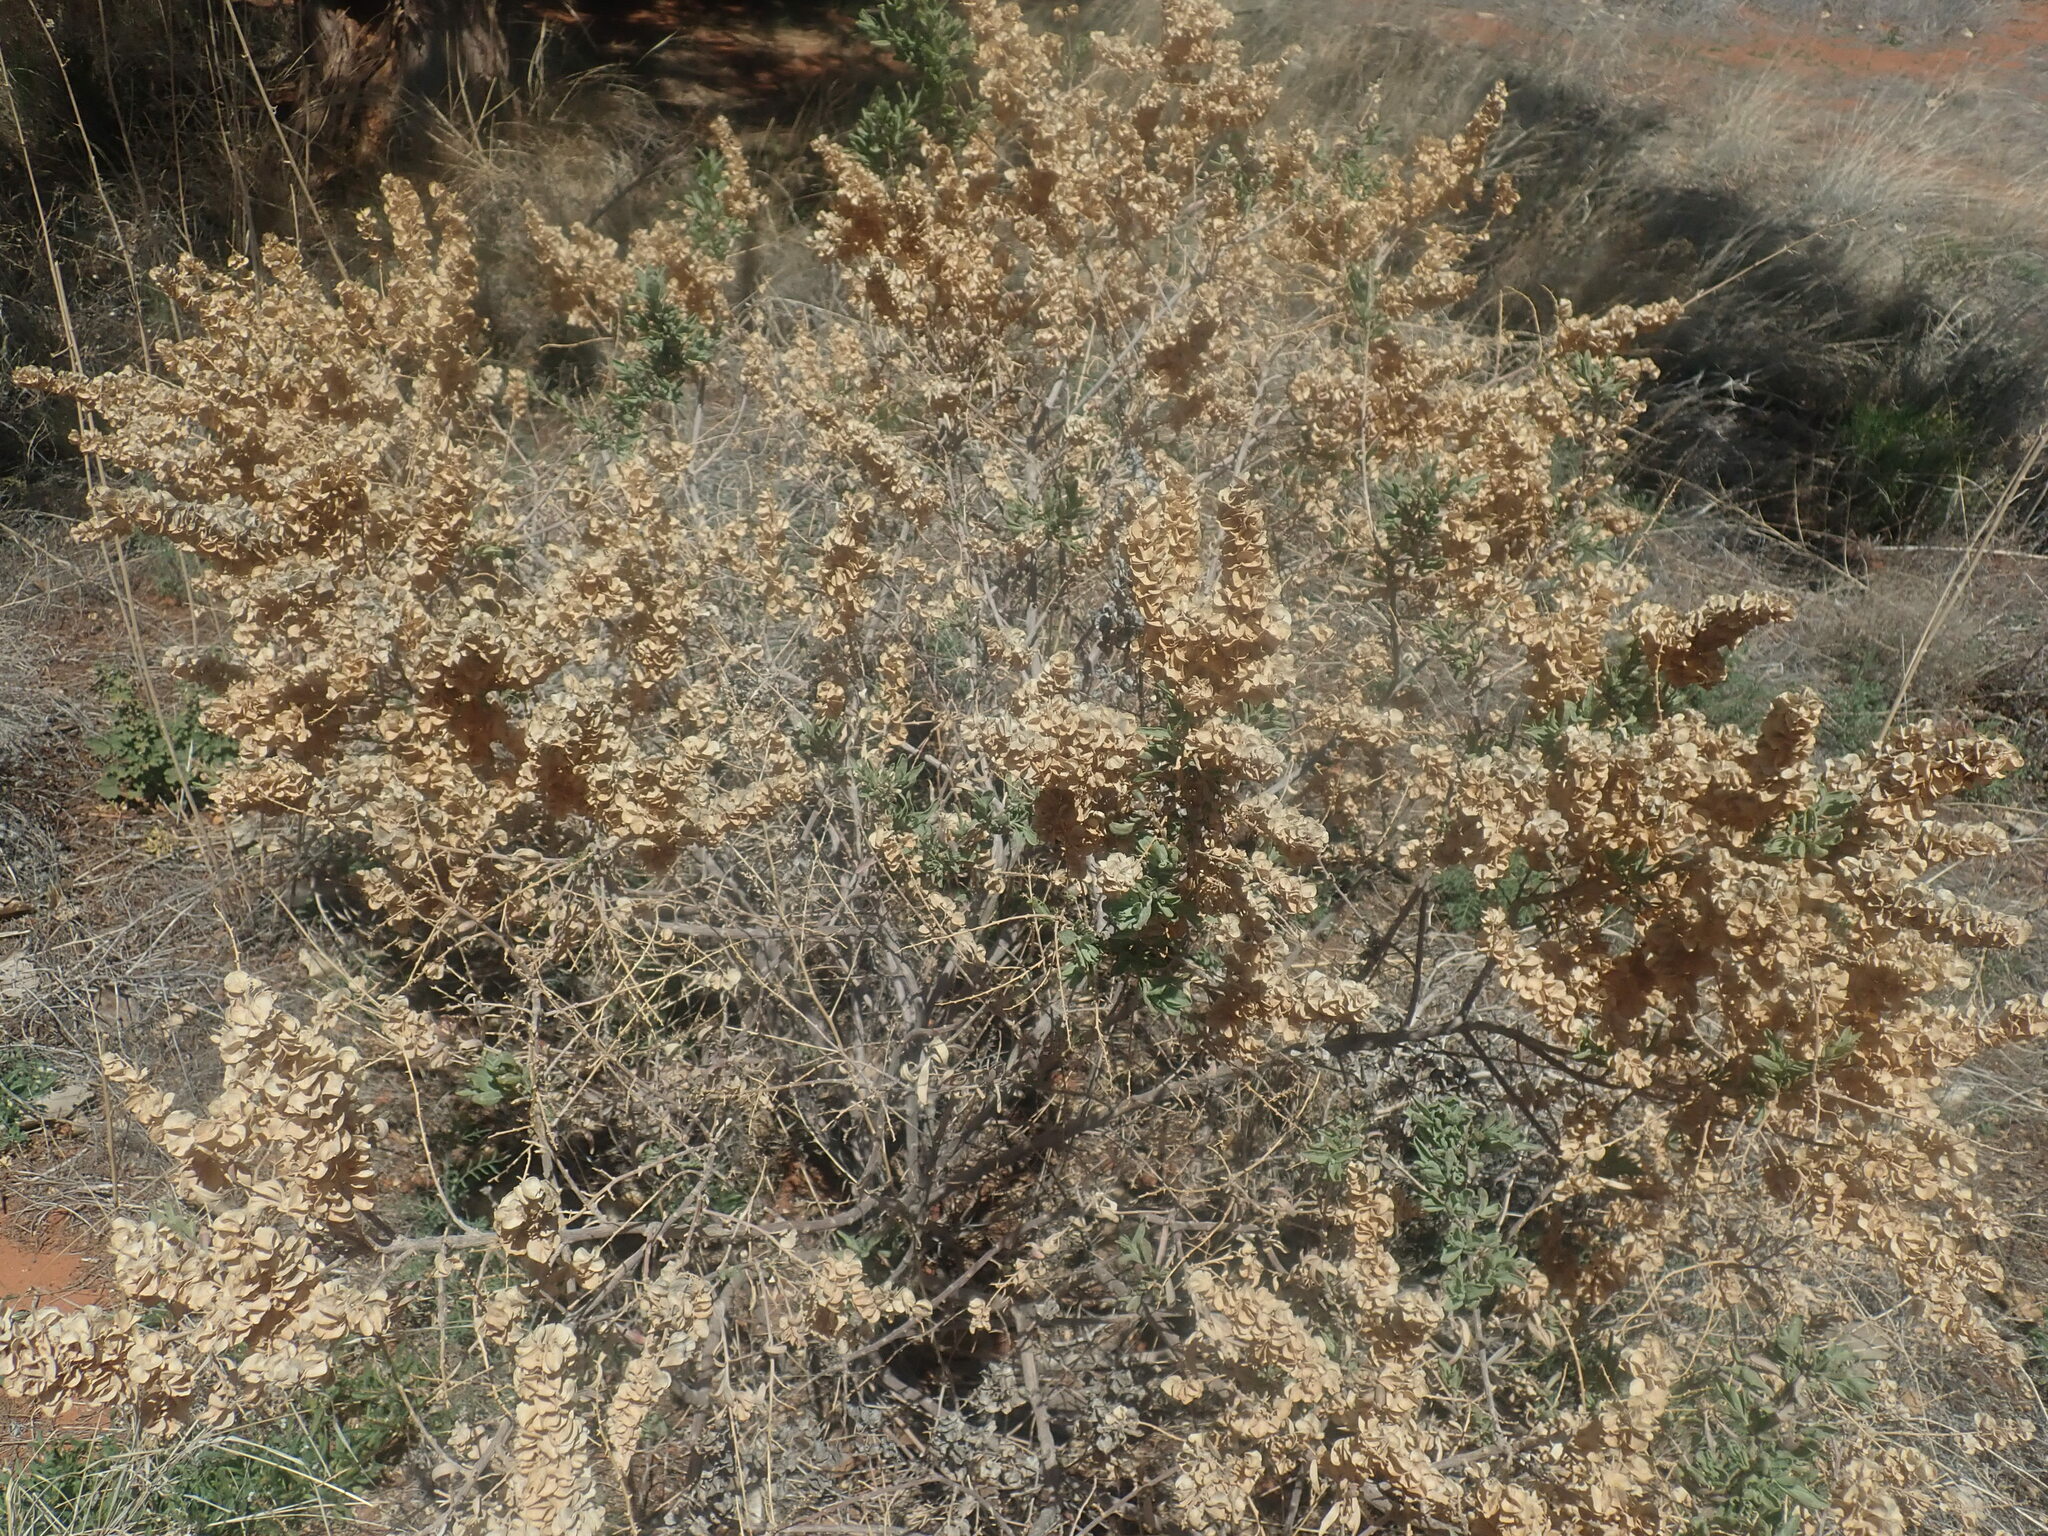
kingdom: Plantae
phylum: Tracheophyta
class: Magnoliopsida
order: Caryophyllales
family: Amaranthaceae
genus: Atriplex
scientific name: Atriplex canescens
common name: Four-wing saltbush
